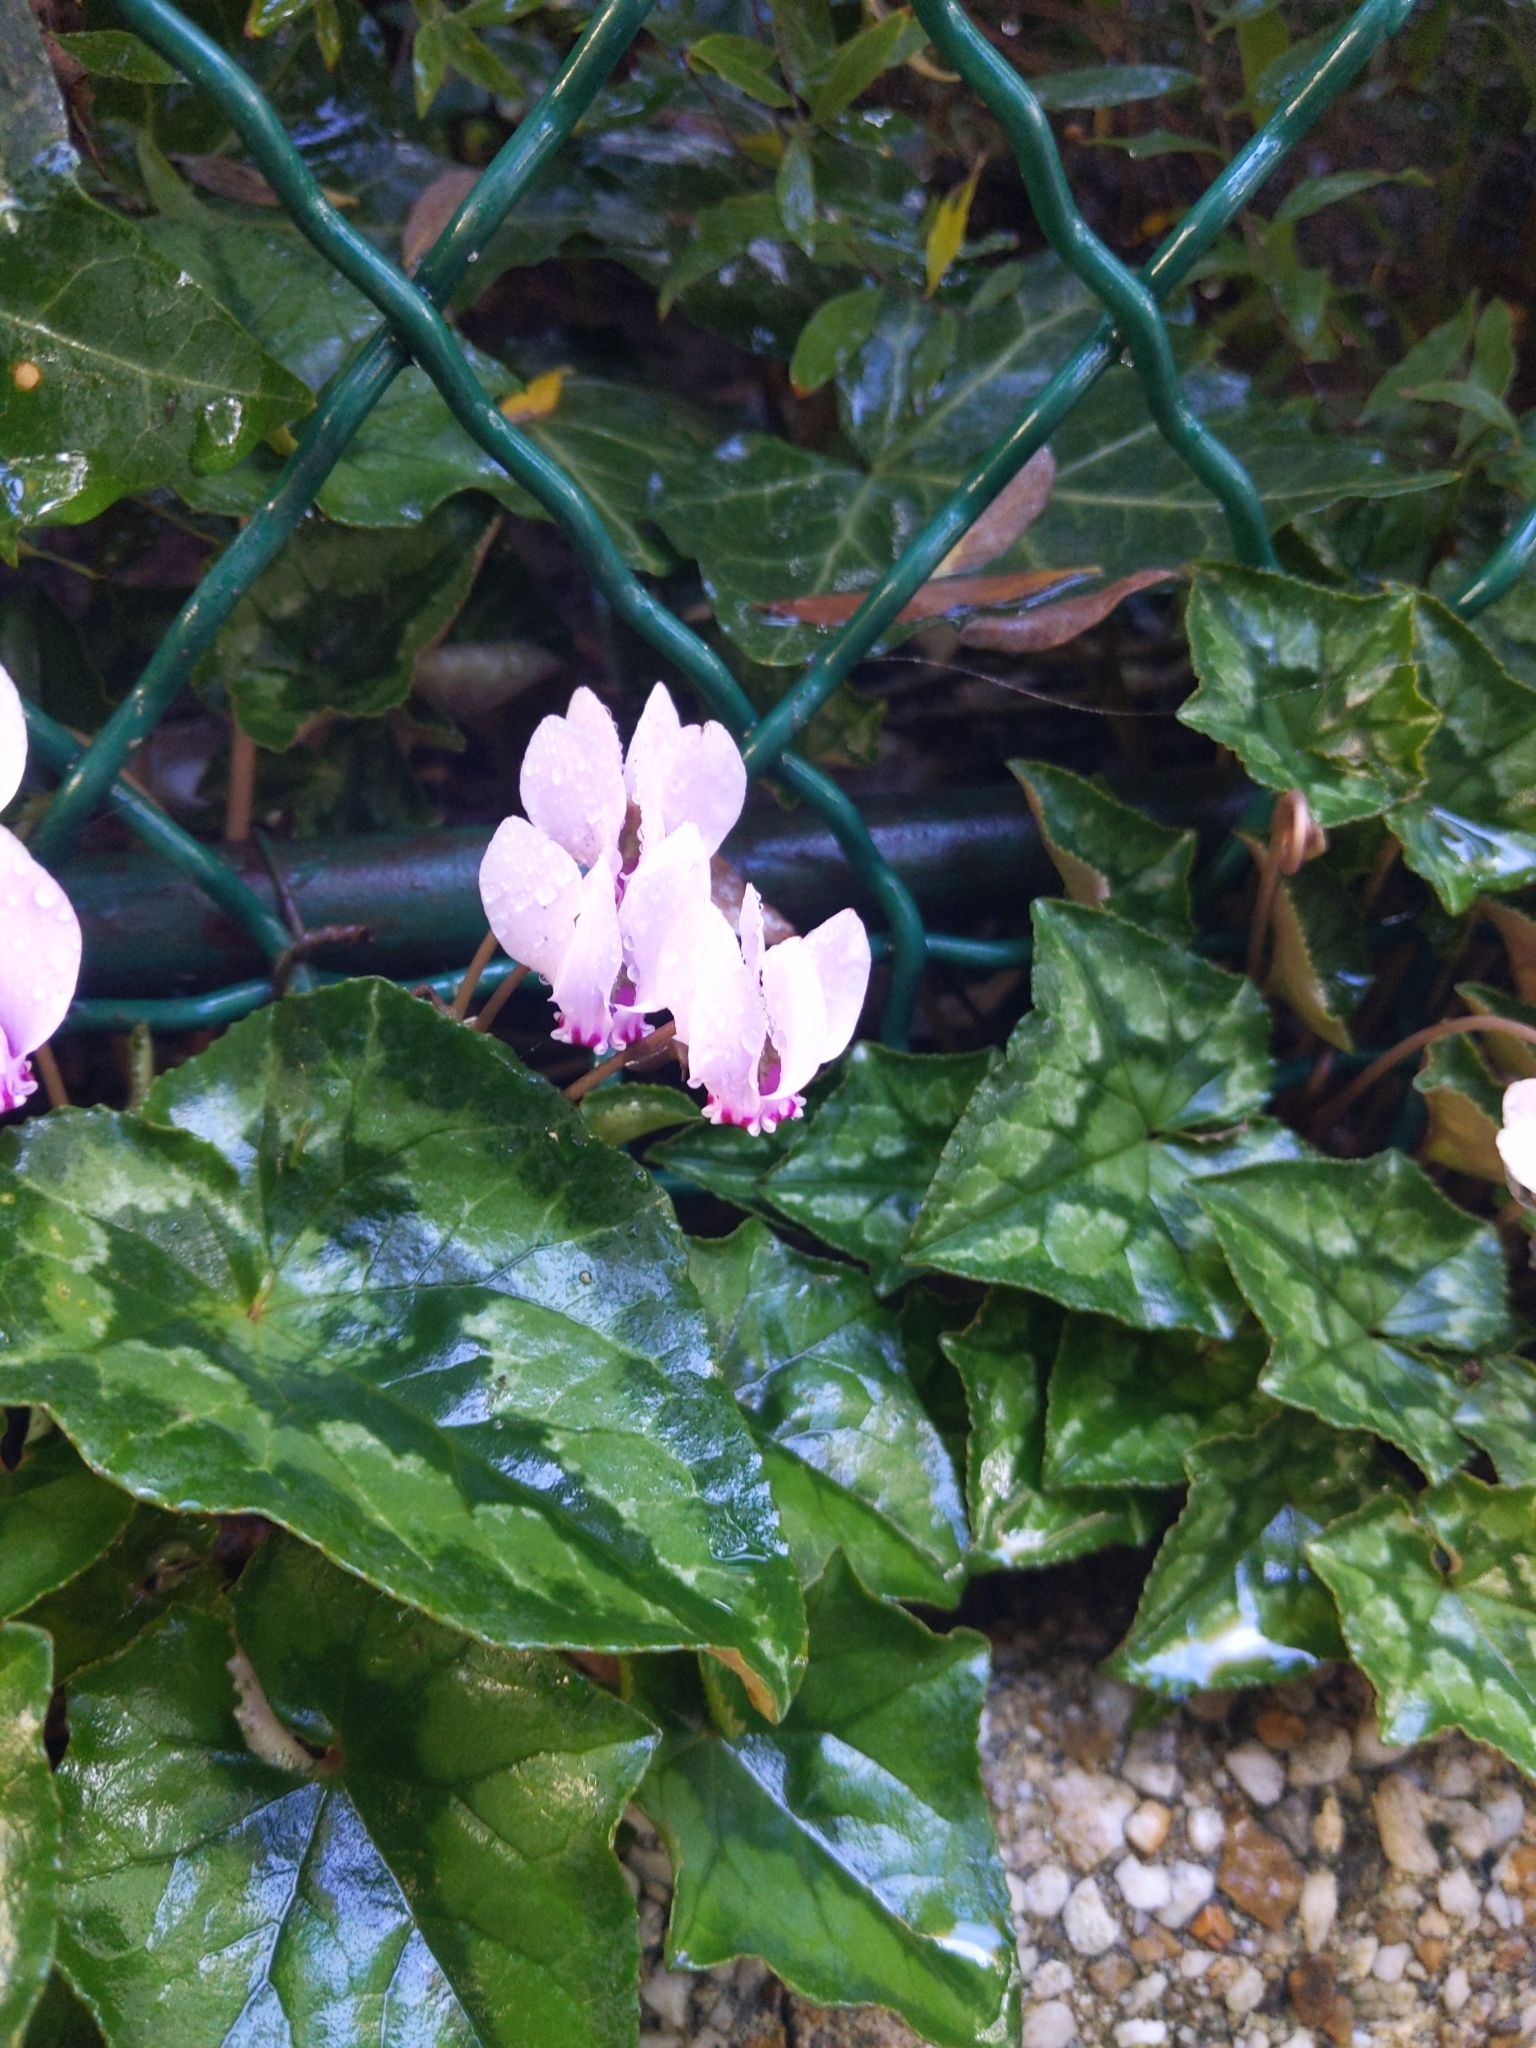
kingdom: Plantae
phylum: Tracheophyta
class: Magnoliopsida
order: Ericales
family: Primulaceae
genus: Cyclamen
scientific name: Cyclamen hederifolium
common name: Sowbread
